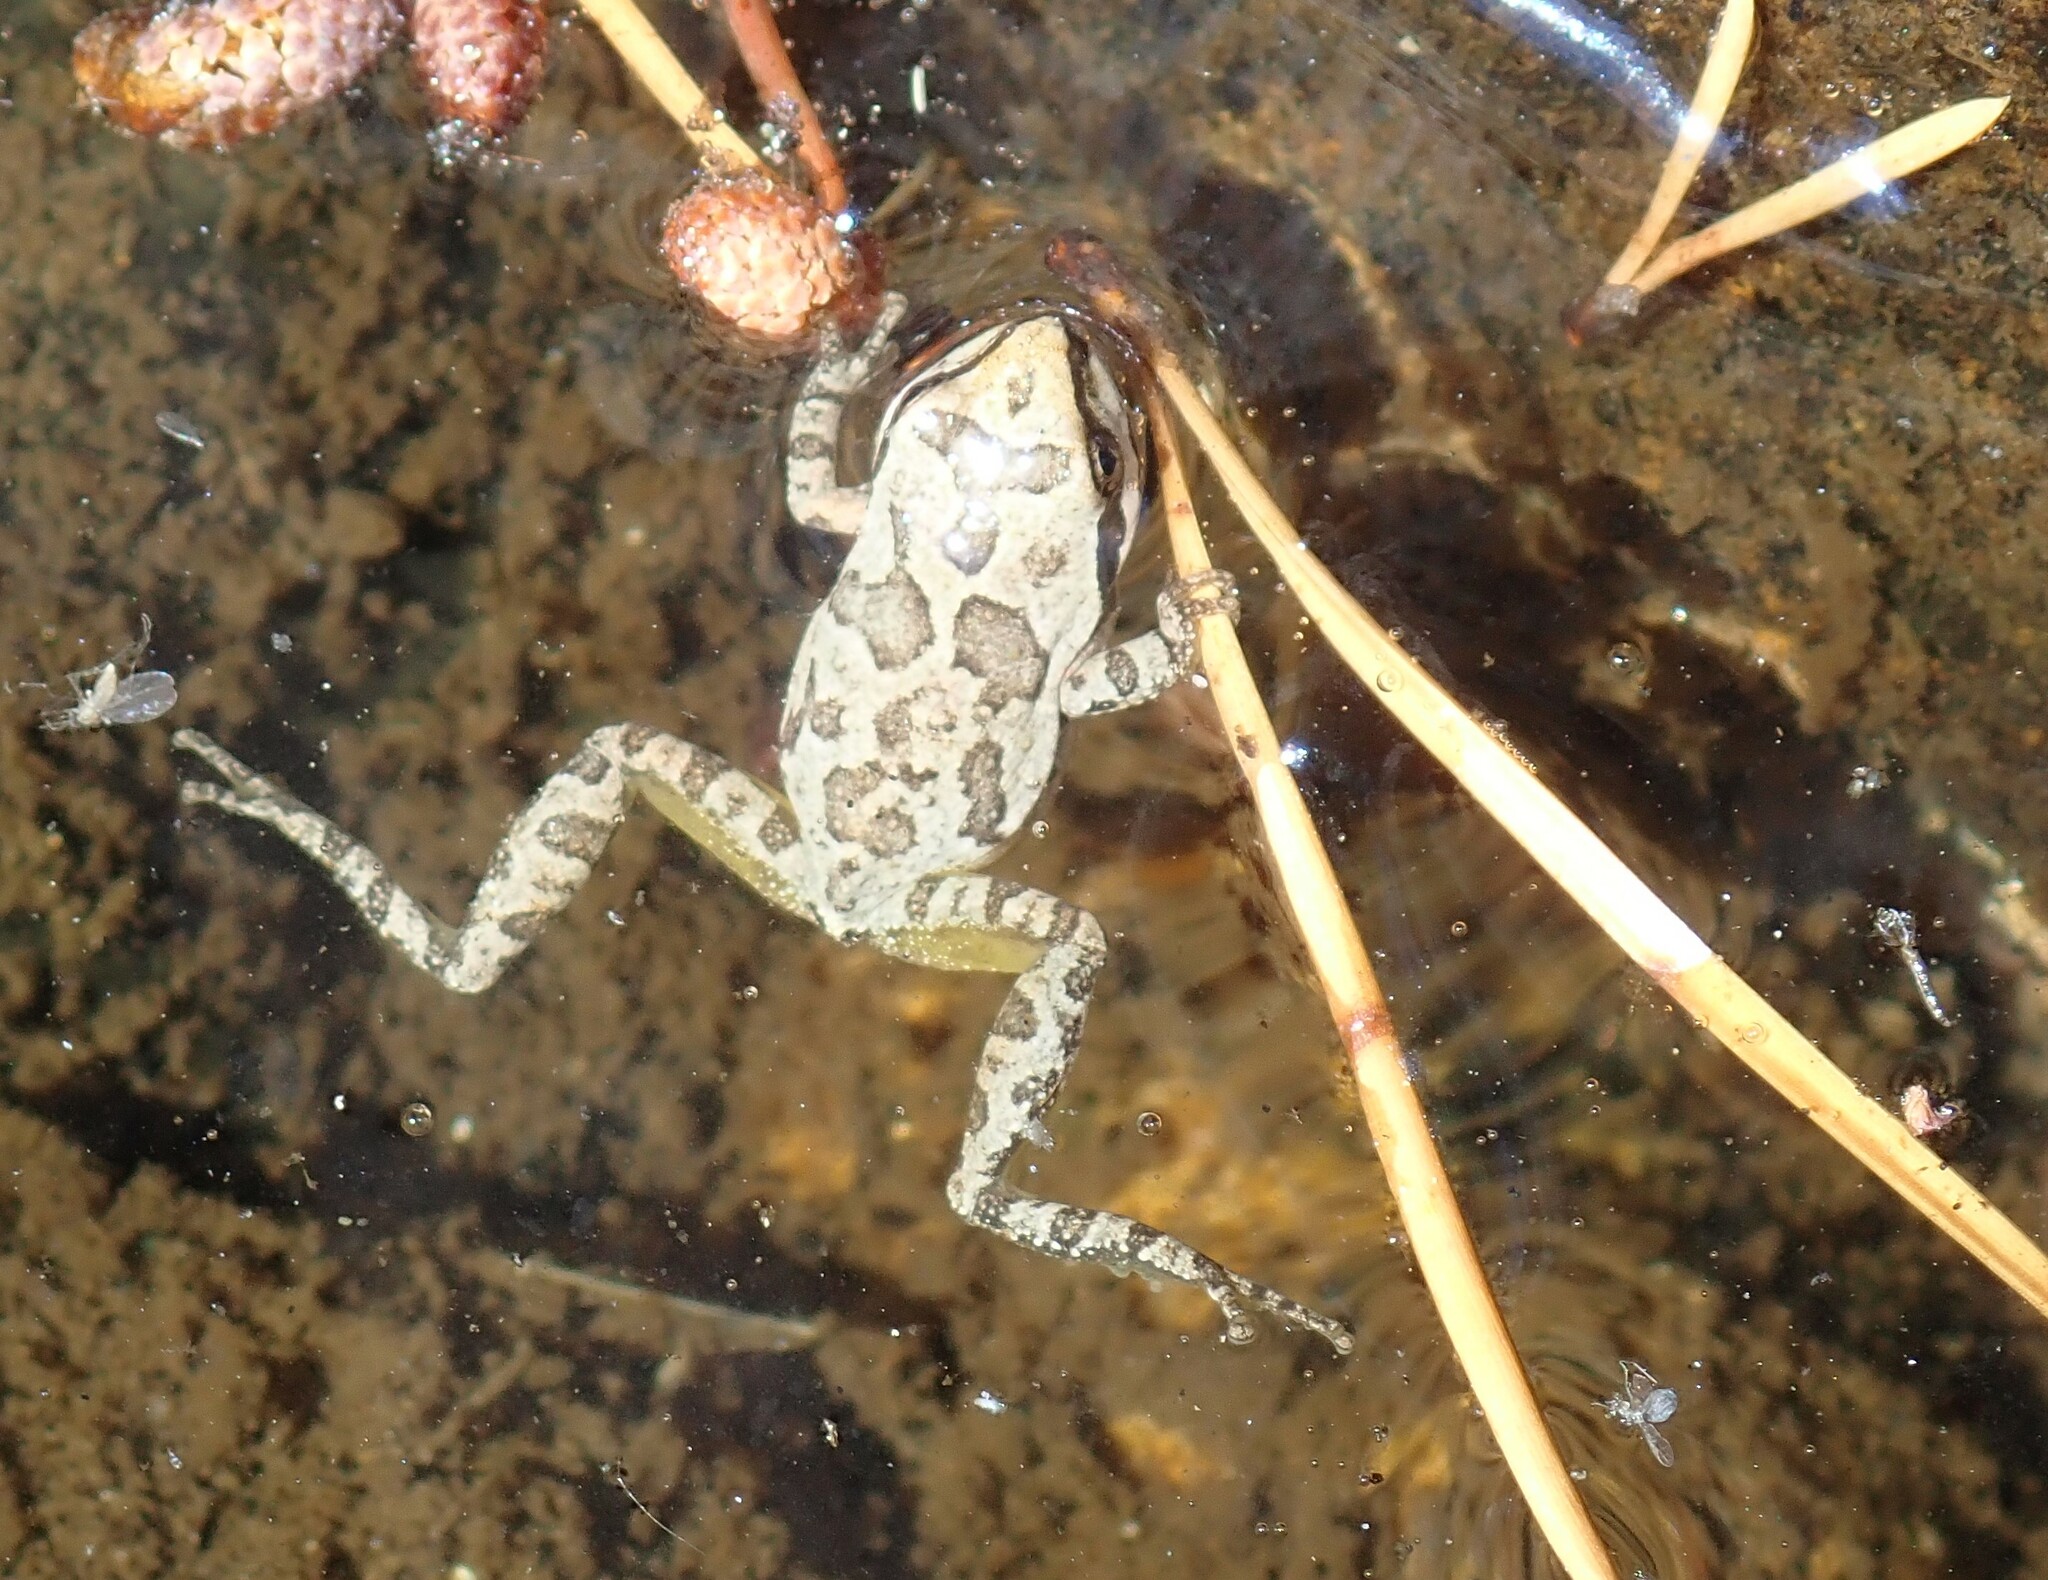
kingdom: Animalia
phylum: Chordata
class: Amphibia
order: Anura
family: Hylidae
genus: Pseudacris
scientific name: Pseudacris regilla
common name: Pacific chorus frog
